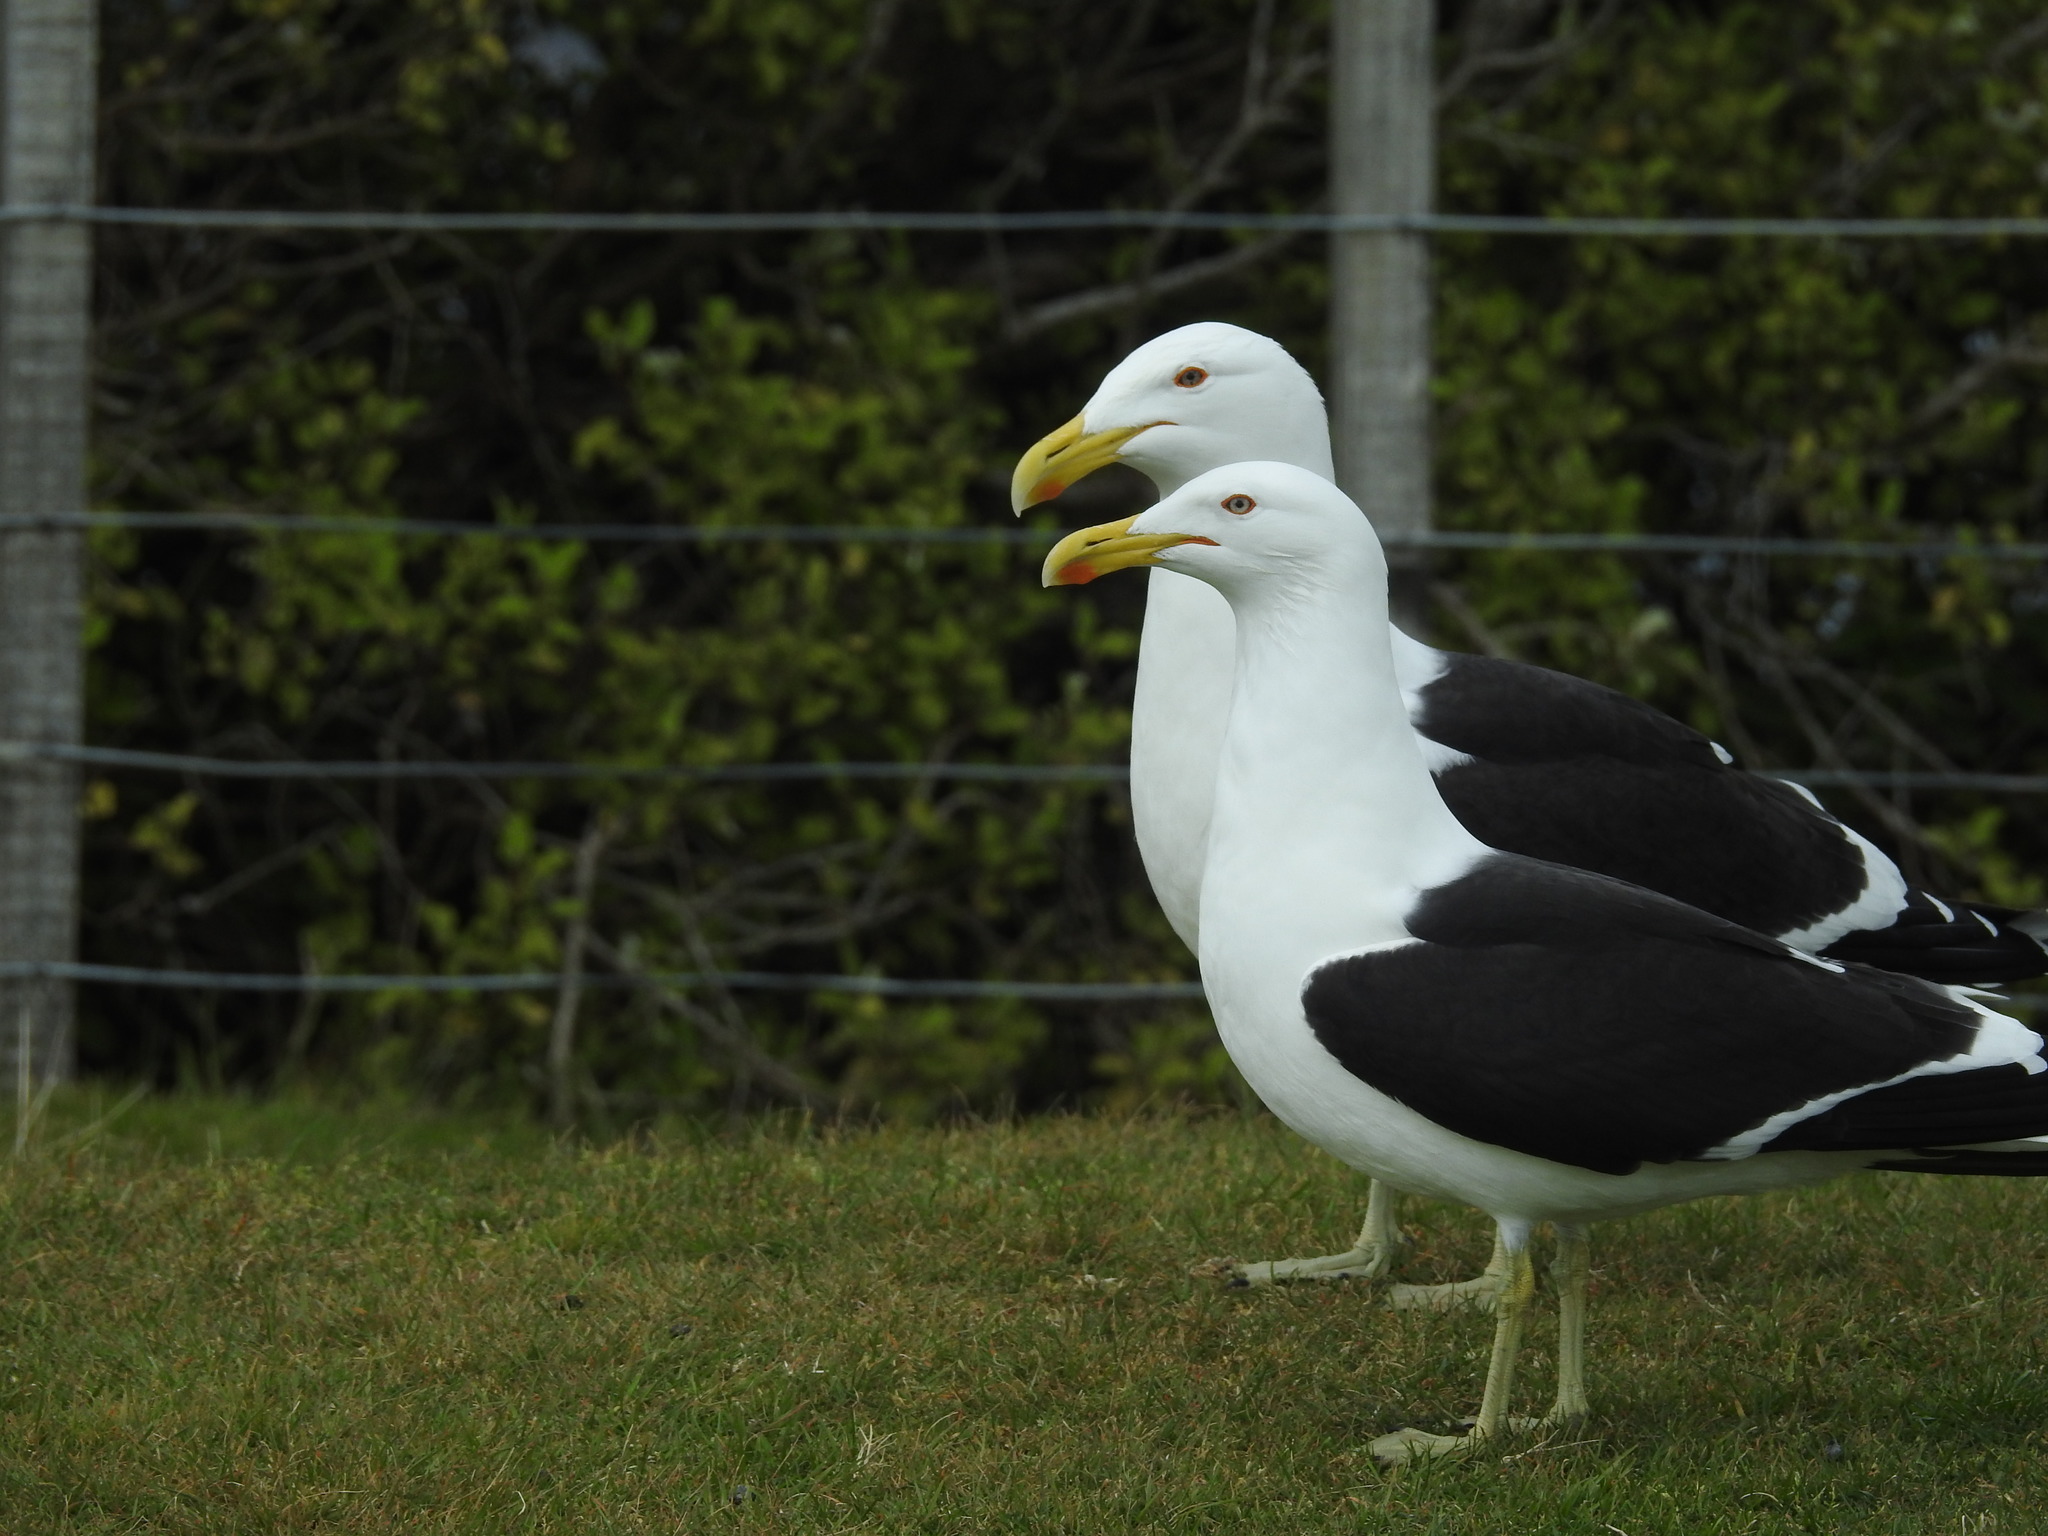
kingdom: Animalia
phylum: Chordata
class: Aves
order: Charadriiformes
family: Laridae
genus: Larus
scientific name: Larus dominicanus
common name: Kelp gull
